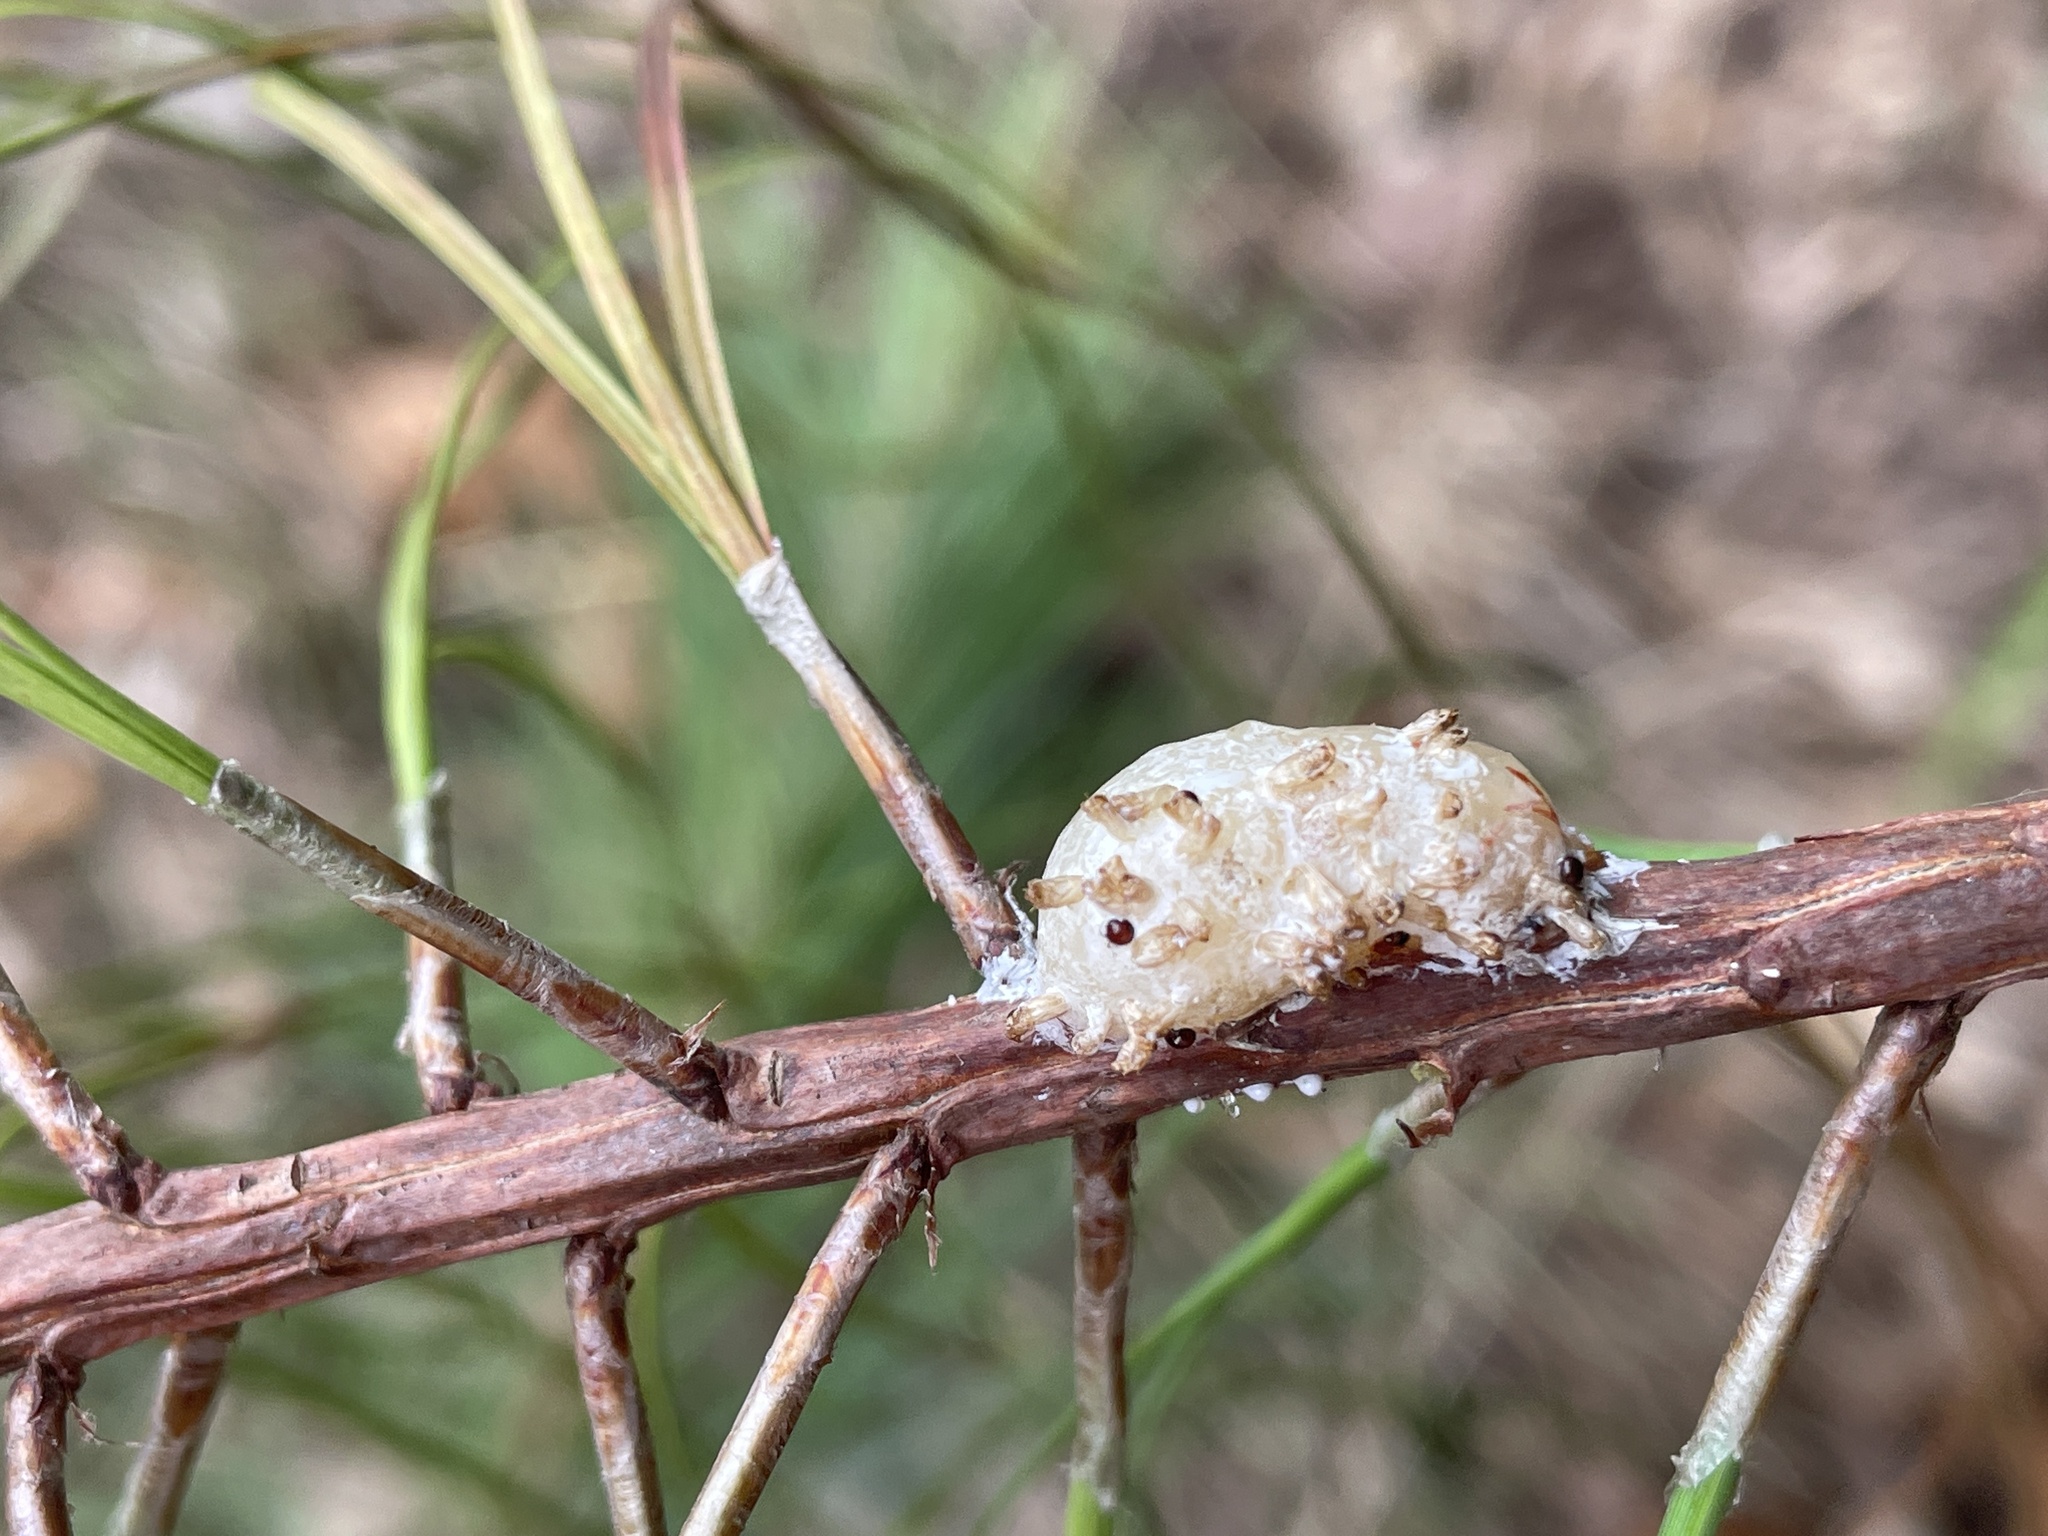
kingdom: Animalia
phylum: Arthropoda
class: Insecta
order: Diptera
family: Cecidomyiidae
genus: Cecidomyia
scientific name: Cecidomyia
